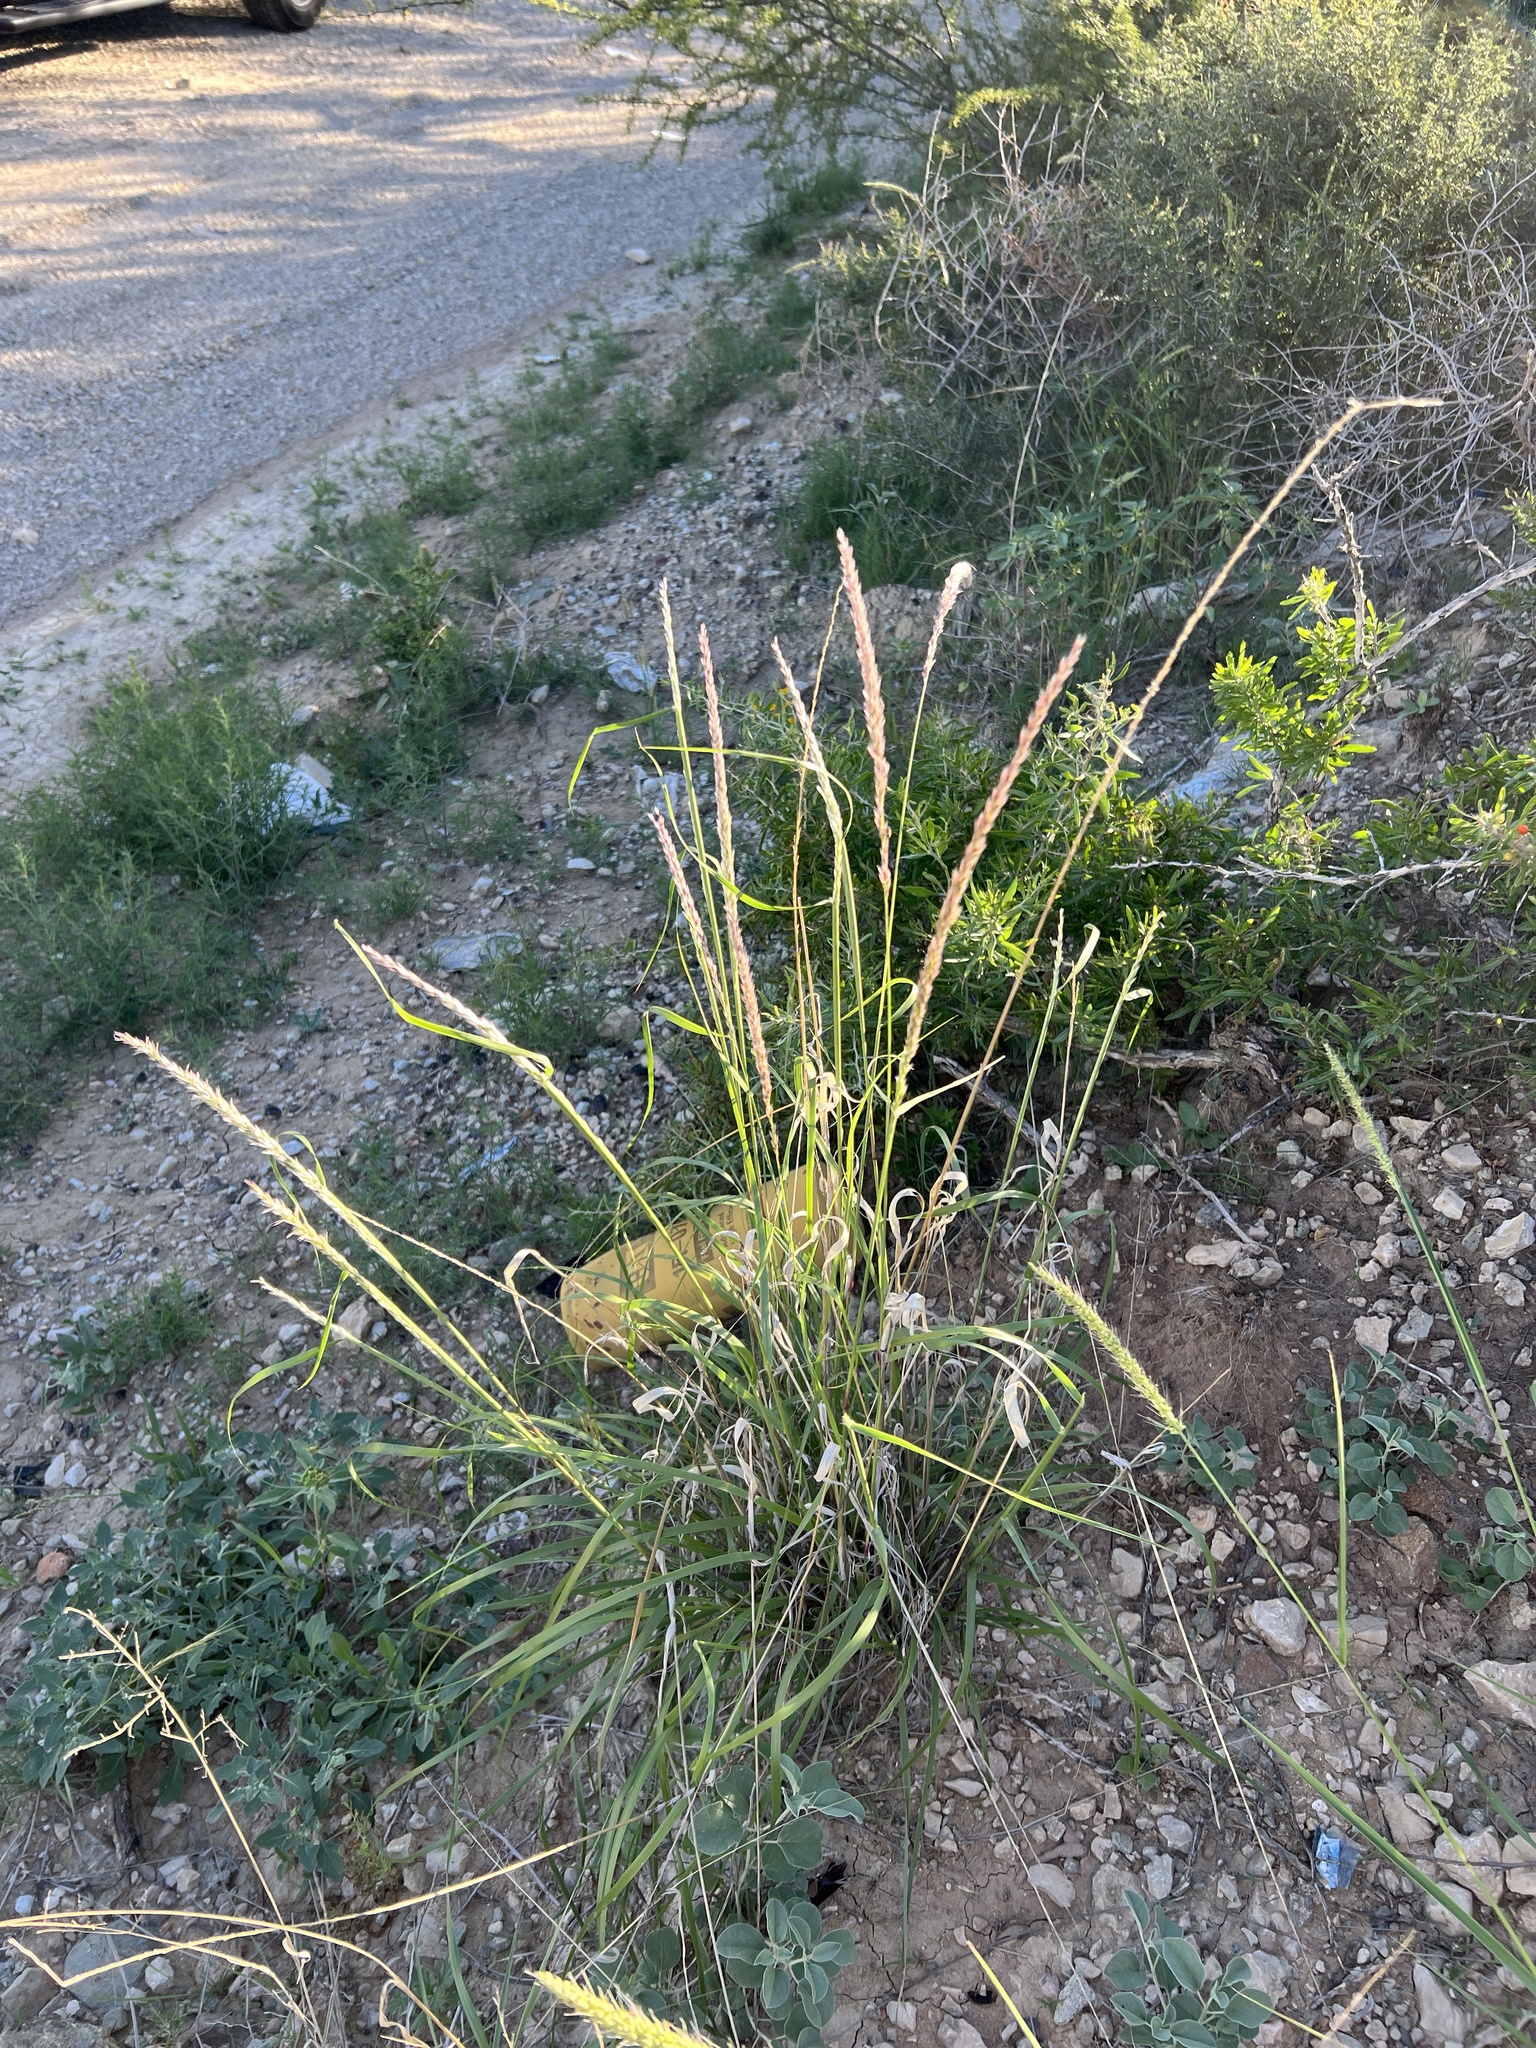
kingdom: Plantae
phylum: Tracheophyta
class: Liliopsida
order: Poales
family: Poaceae
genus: Pappophorum
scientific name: Pappophorum bicolor
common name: Pink pappus grass
